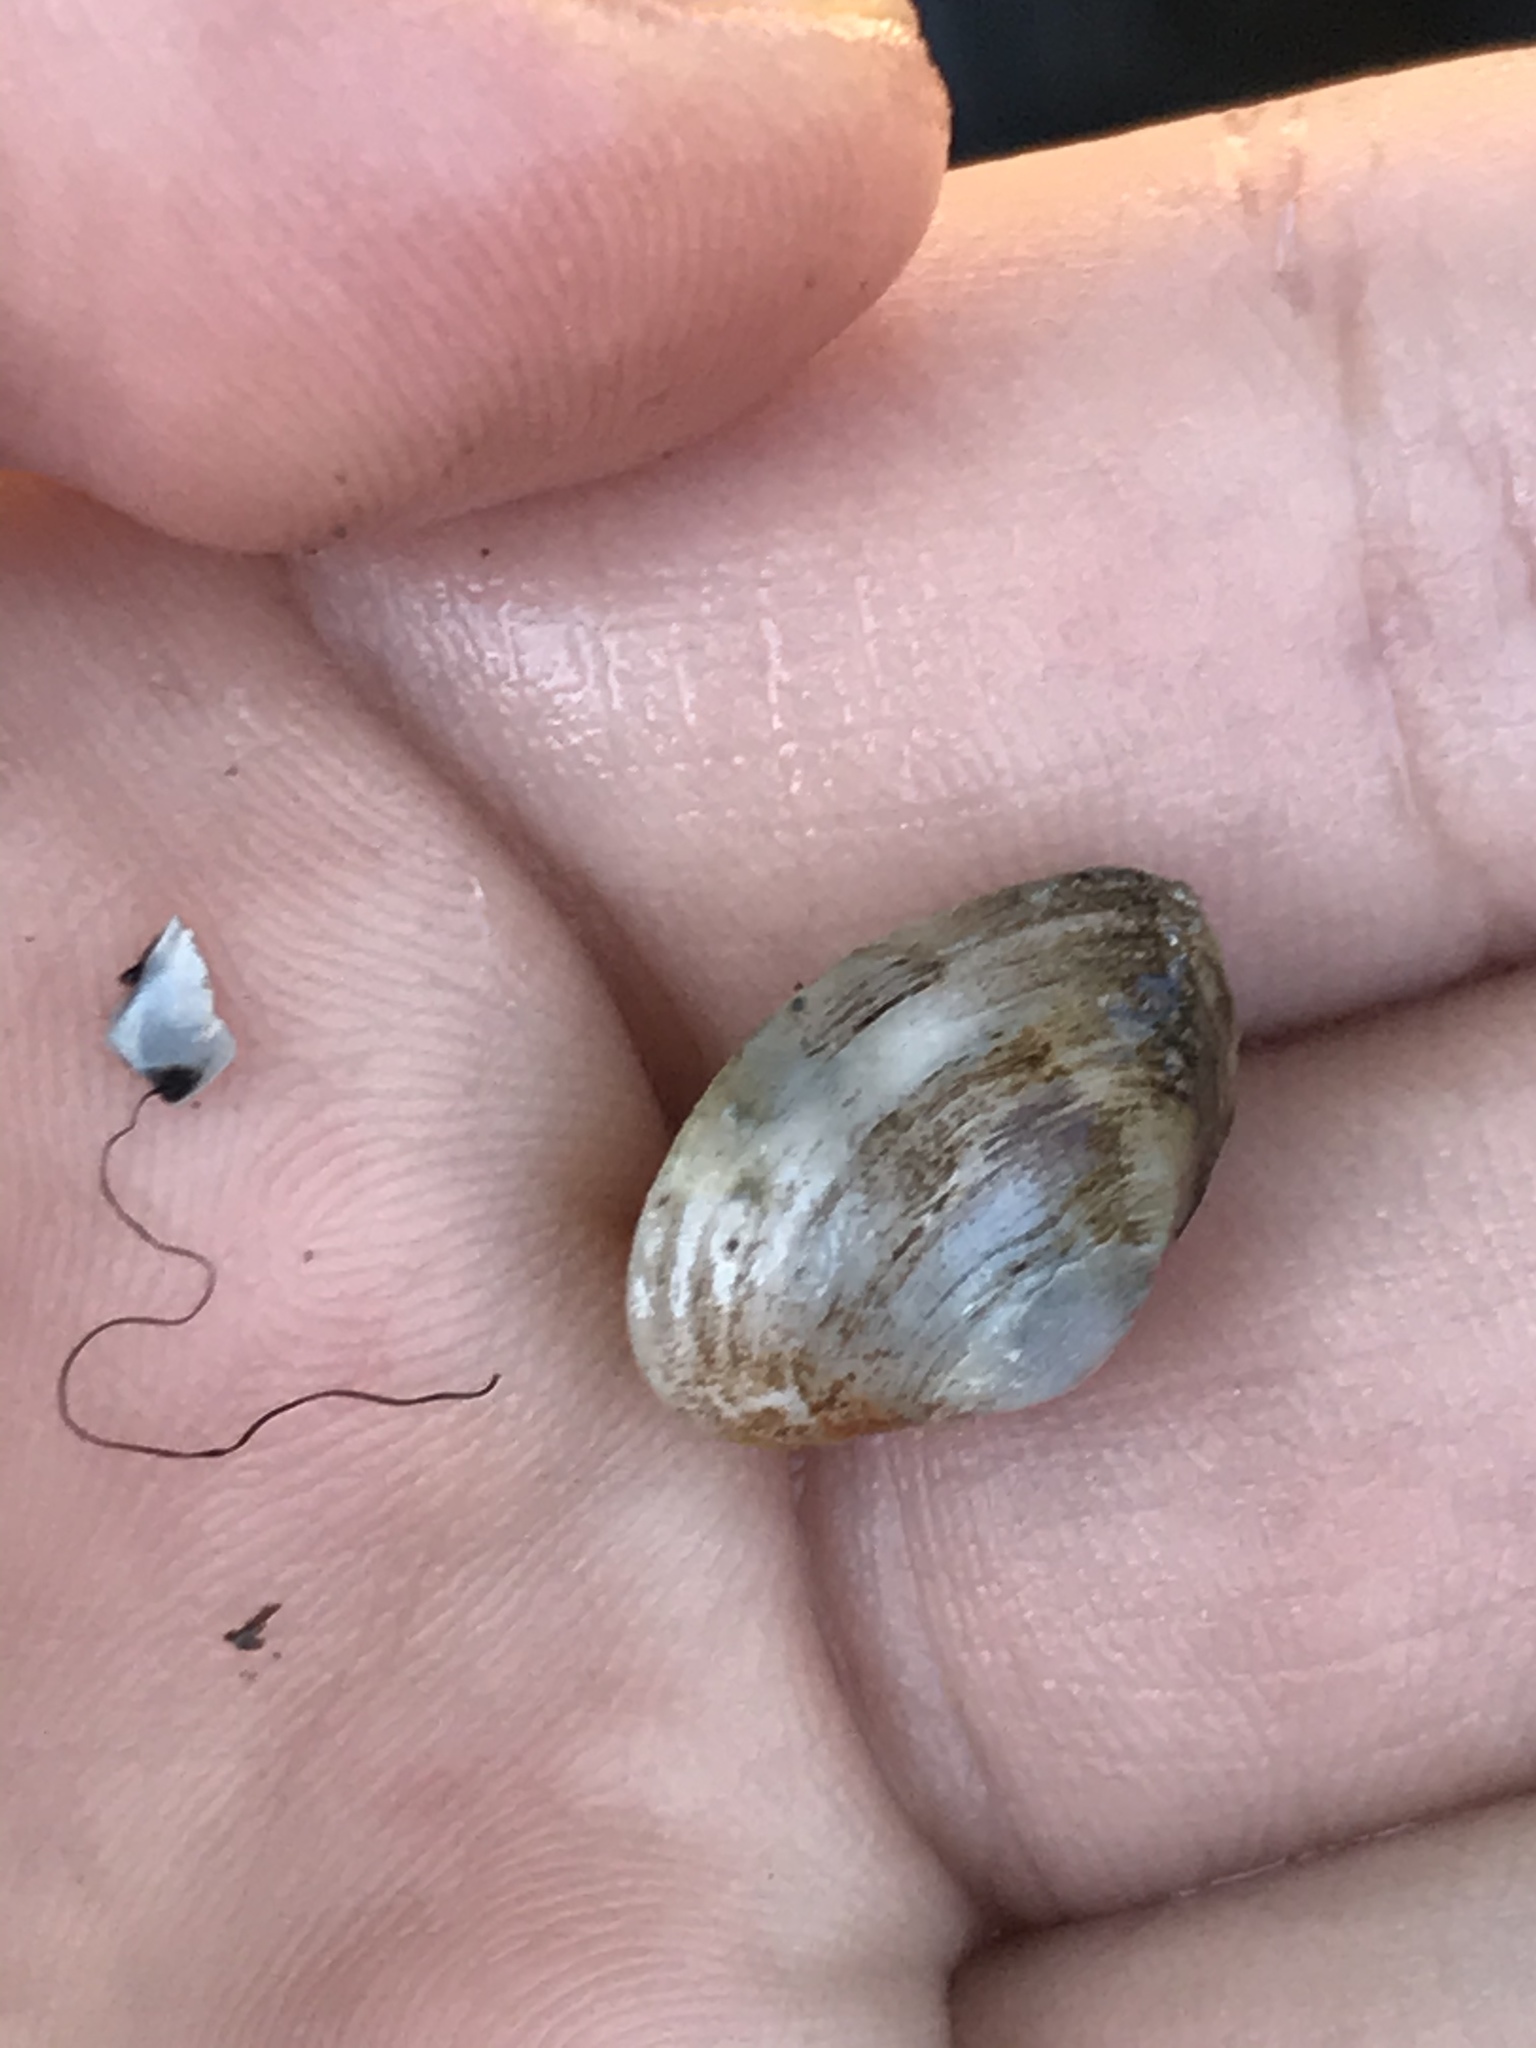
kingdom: Animalia
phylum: Mollusca
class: Bivalvia
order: Myida
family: Corbulidae
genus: Potamocorbula
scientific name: Potamocorbula amurensis
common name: Brackish-water corbula
